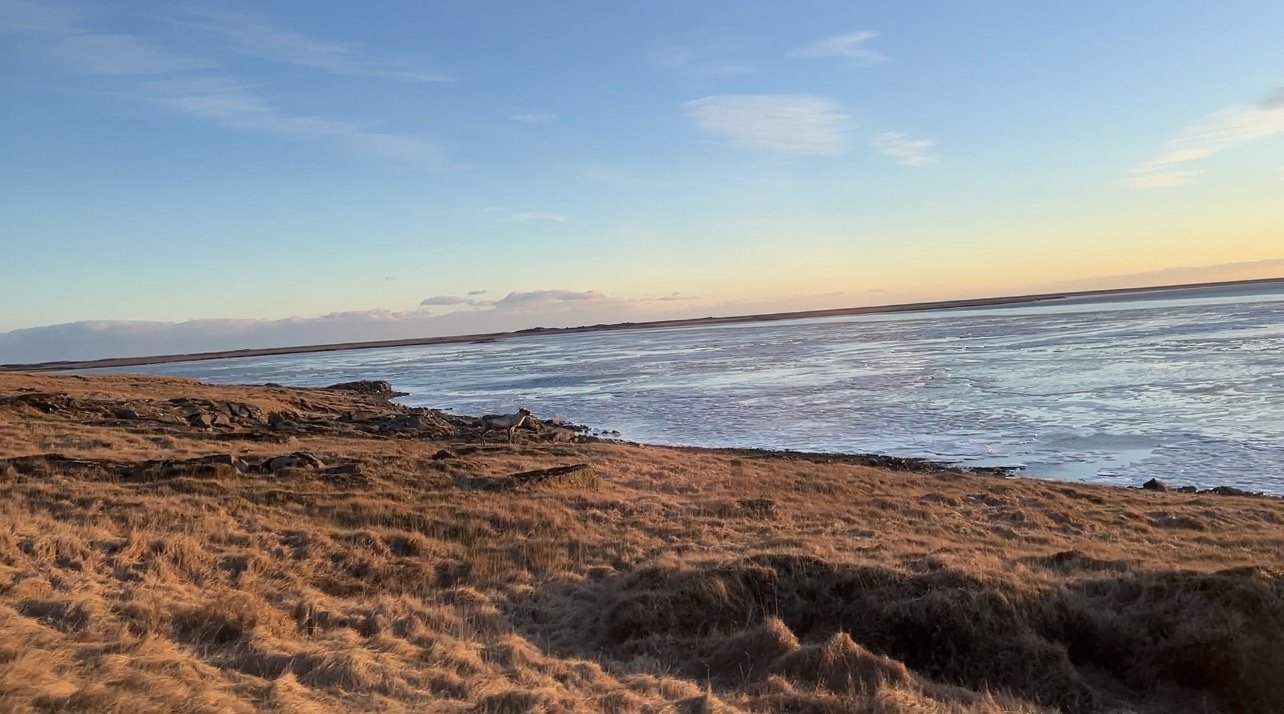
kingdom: Animalia
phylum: Chordata
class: Mammalia
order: Artiodactyla
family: Cervidae
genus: Rangifer
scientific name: Rangifer tarandus
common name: Reindeer
